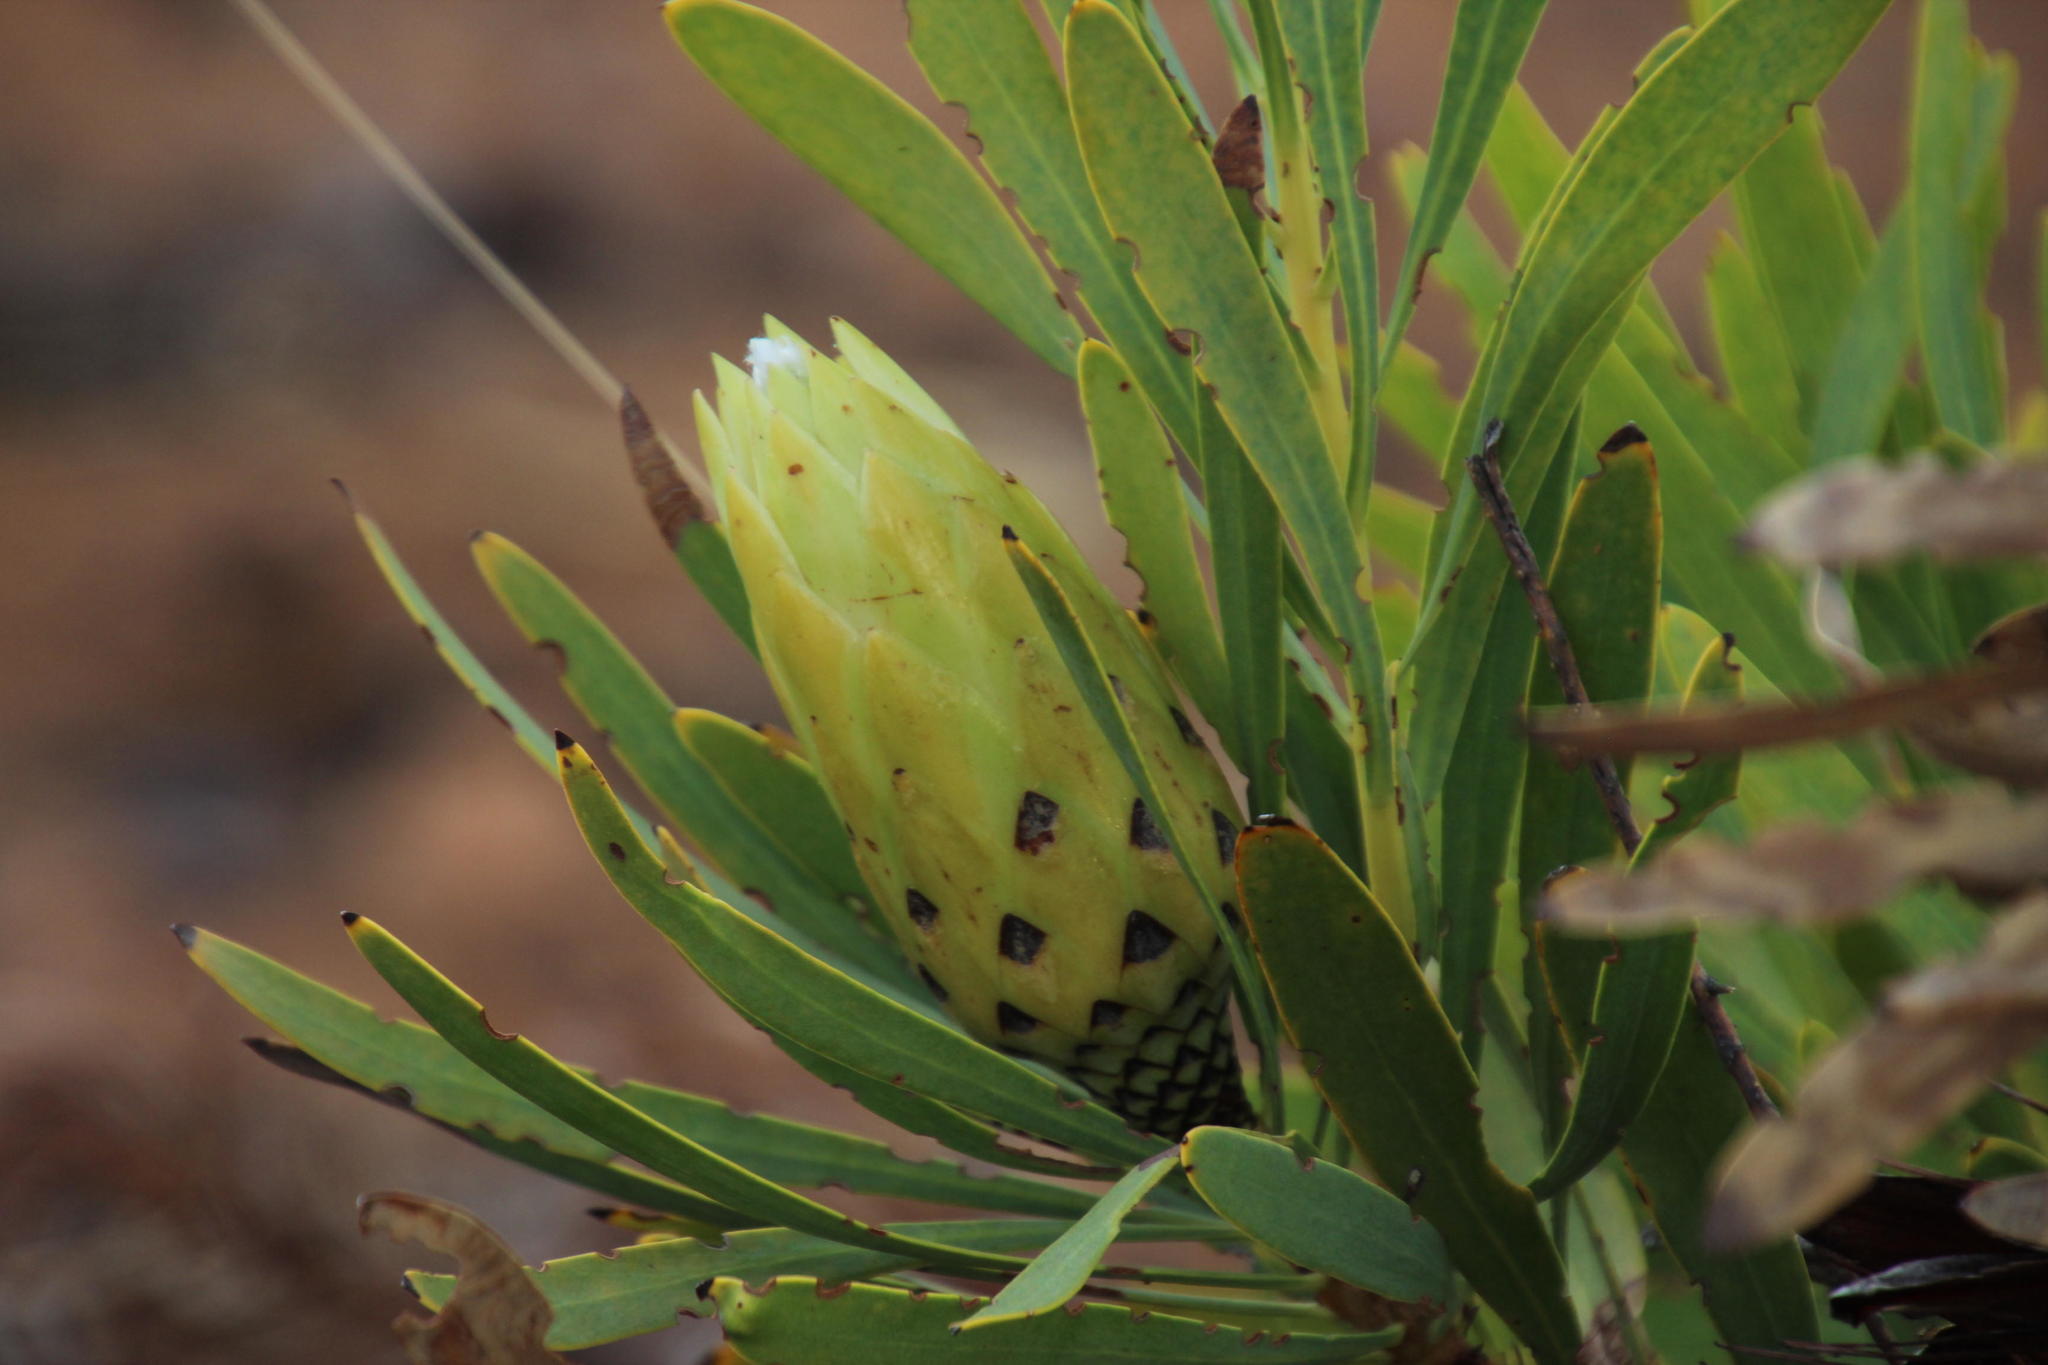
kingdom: Plantae
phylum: Tracheophyta
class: Magnoliopsida
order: Proteales
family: Proteaceae
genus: Protea
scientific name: Protea repens
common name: Sugarbush
